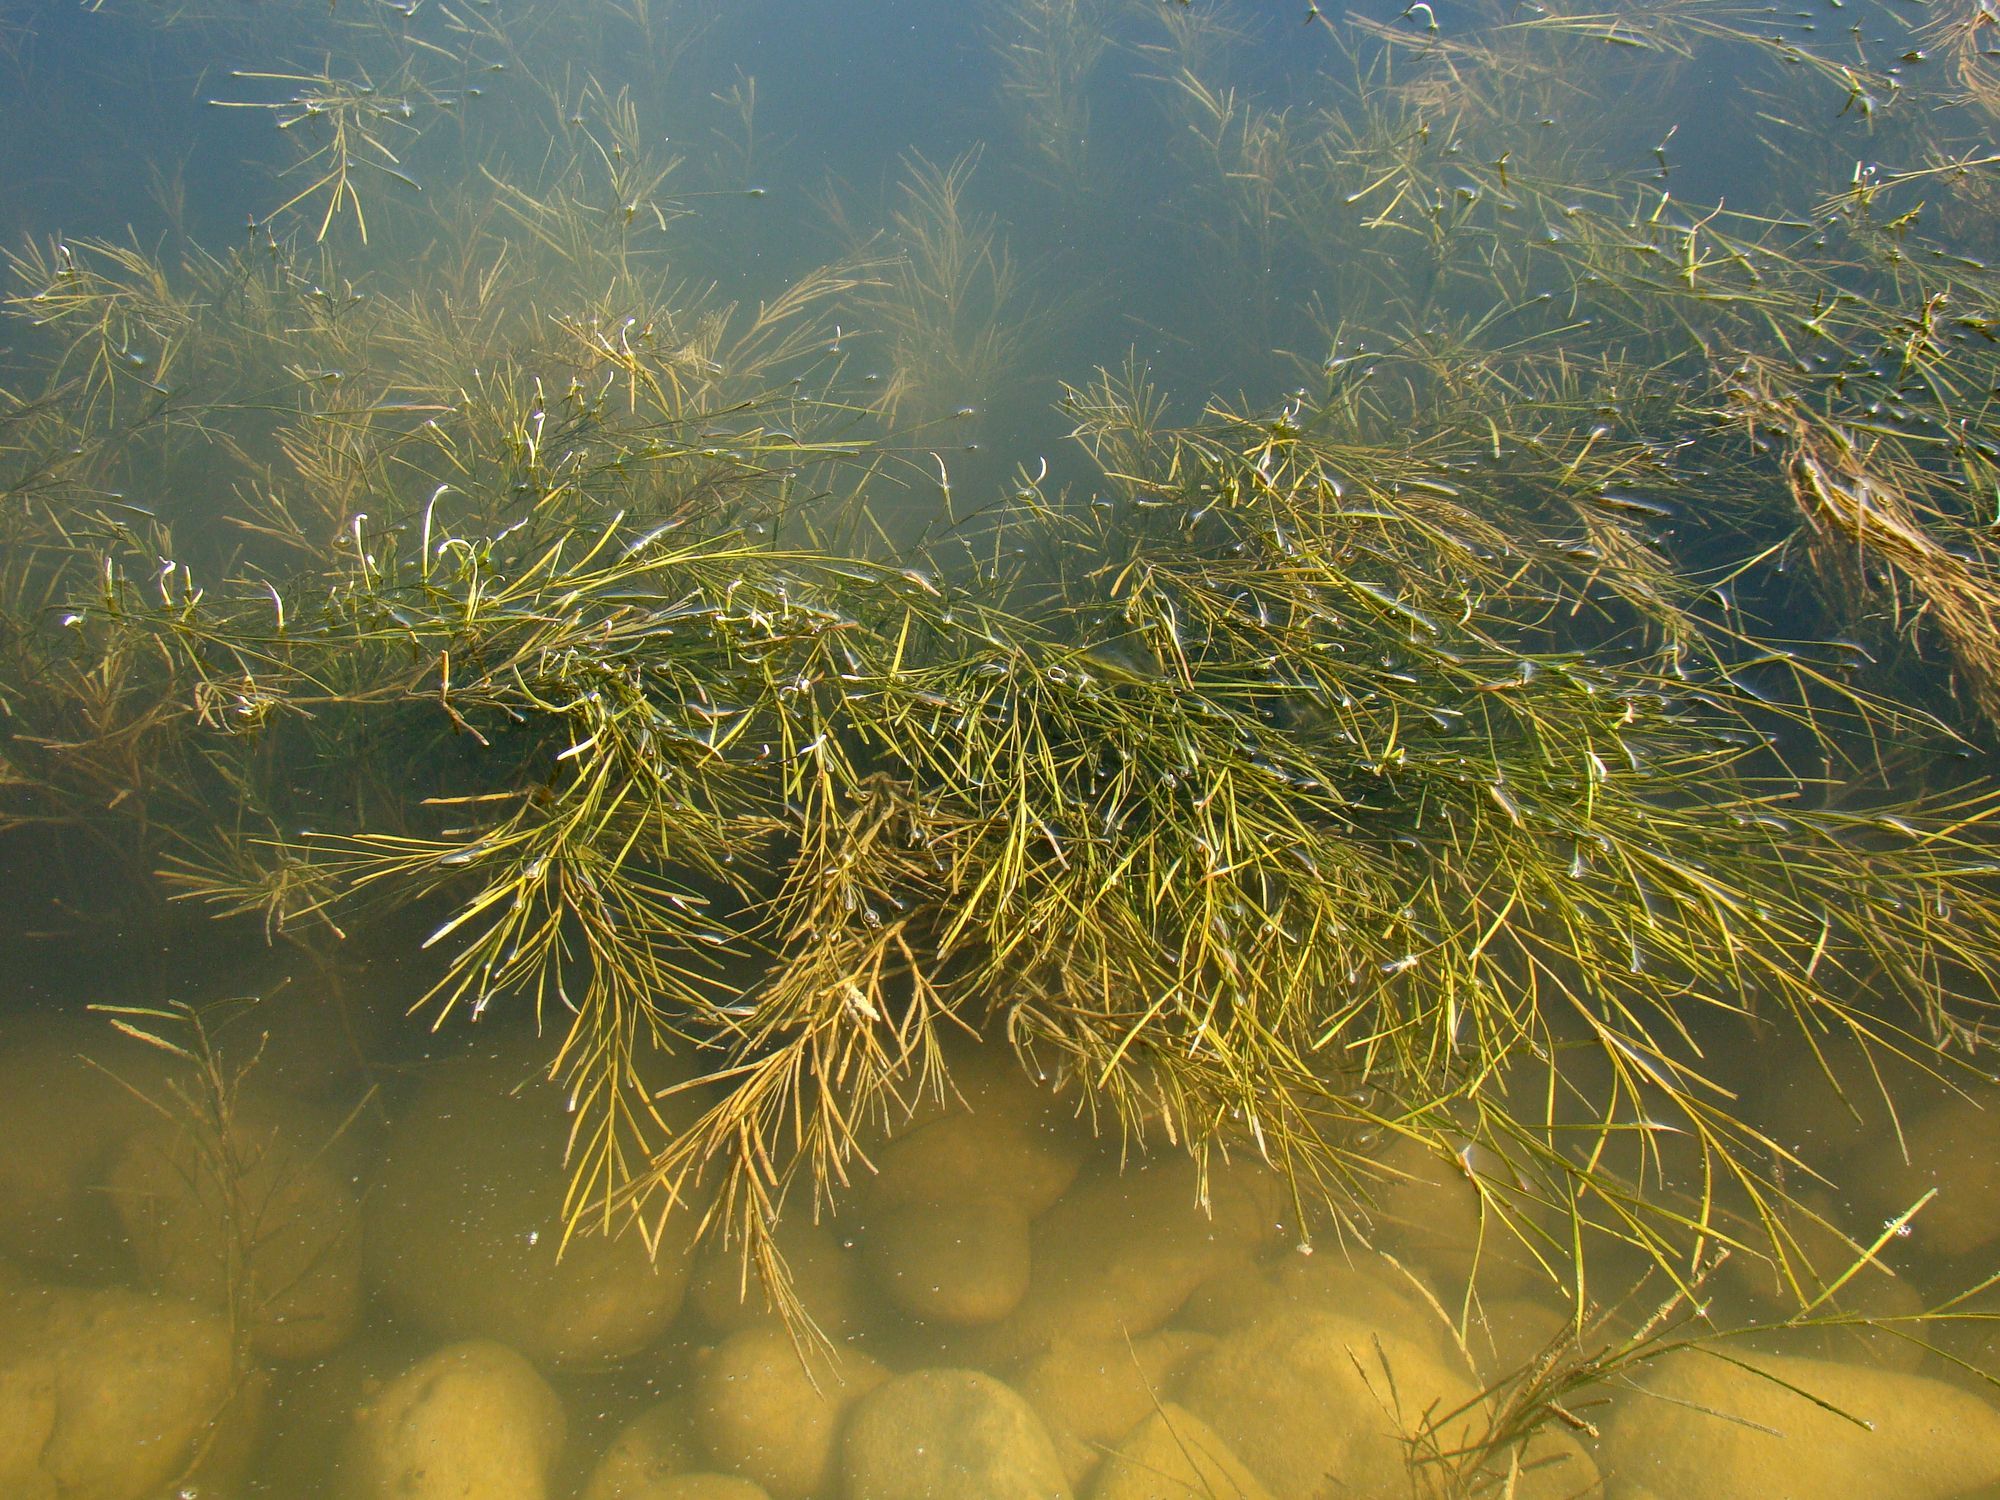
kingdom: Plantae
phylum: Tracheophyta
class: Liliopsida
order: Alismatales
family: Potamogetonaceae
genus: Stuckenia
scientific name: Stuckenia pectinata
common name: Sago pondweed
